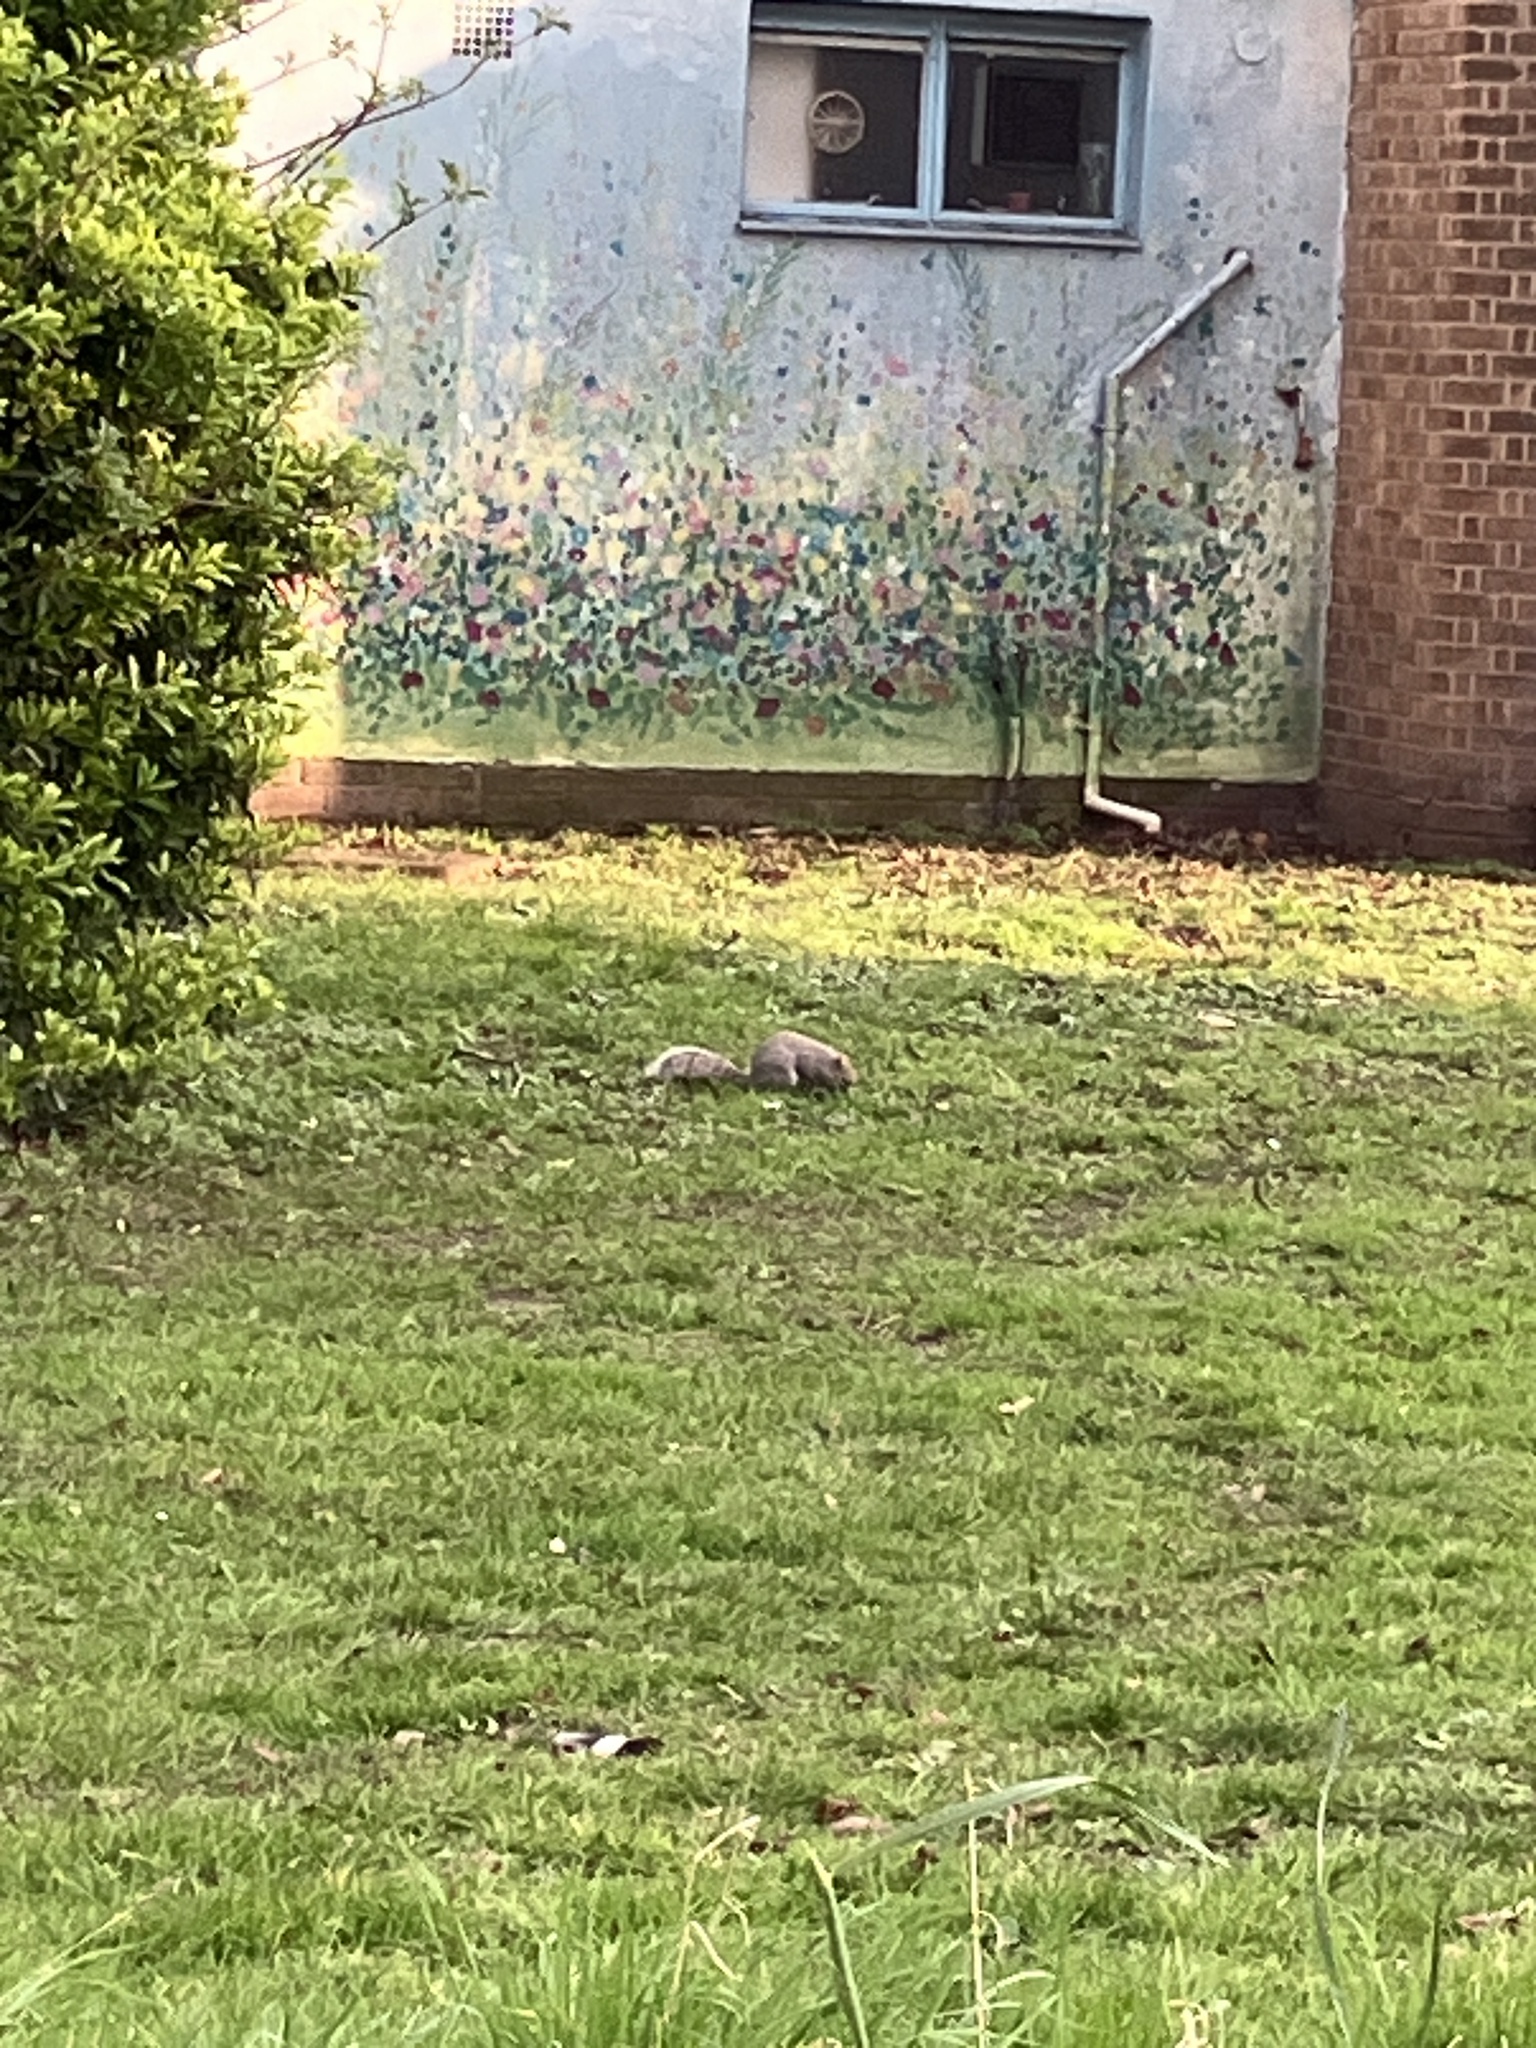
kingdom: Animalia
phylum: Chordata
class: Mammalia
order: Rodentia
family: Sciuridae
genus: Sciurus
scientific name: Sciurus carolinensis
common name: Eastern gray squirrel
